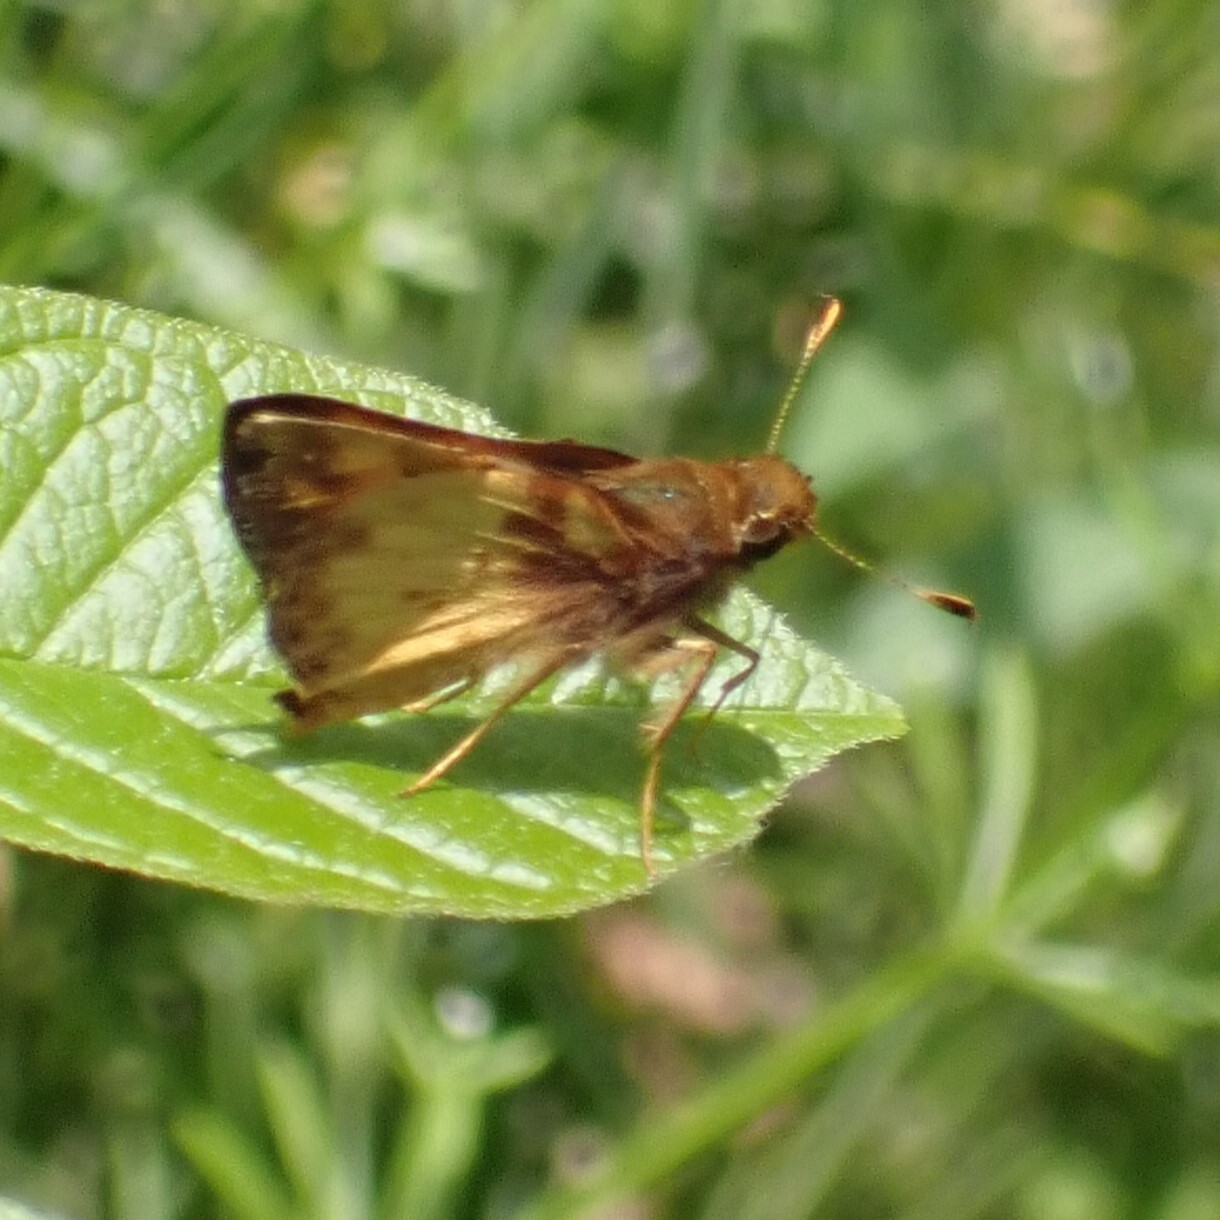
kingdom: Animalia
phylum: Arthropoda
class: Insecta
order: Lepidoptera
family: Hesperiidae
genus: Lon
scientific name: Lon zabulon
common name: Zabulon skipper
